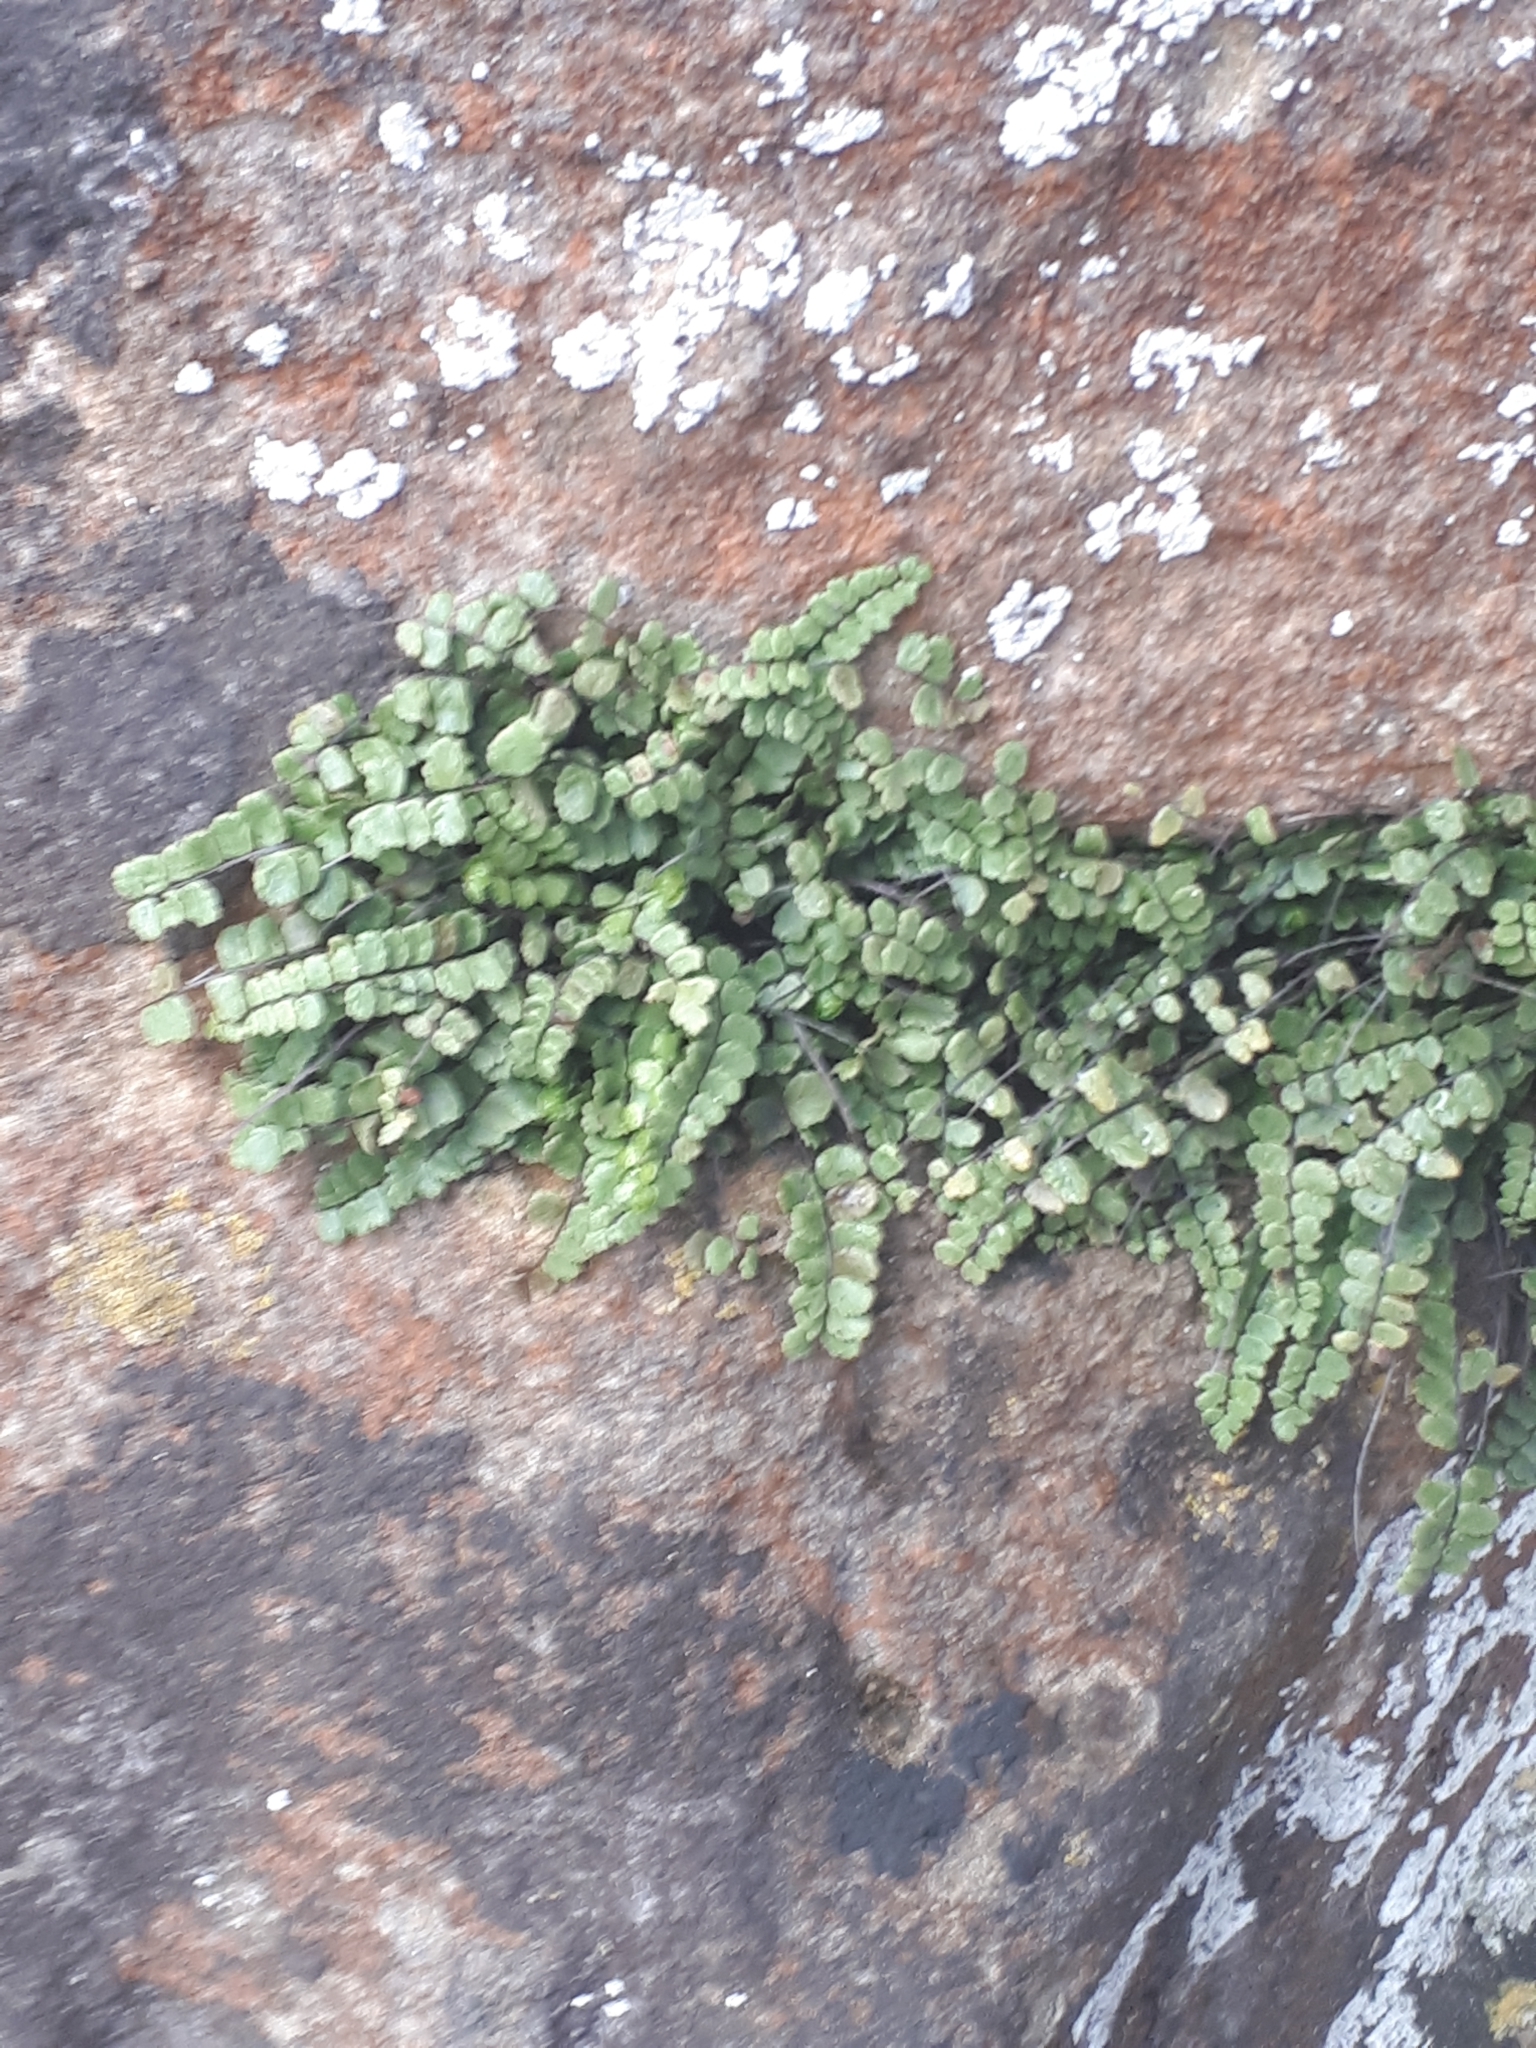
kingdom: Plantae
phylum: Tracheophyta
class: Polypodiopsida
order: Polypodiales
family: Aspleniaceae
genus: Asplenium
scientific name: Asplenium trichomanes
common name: Maidenhair spleenwort
